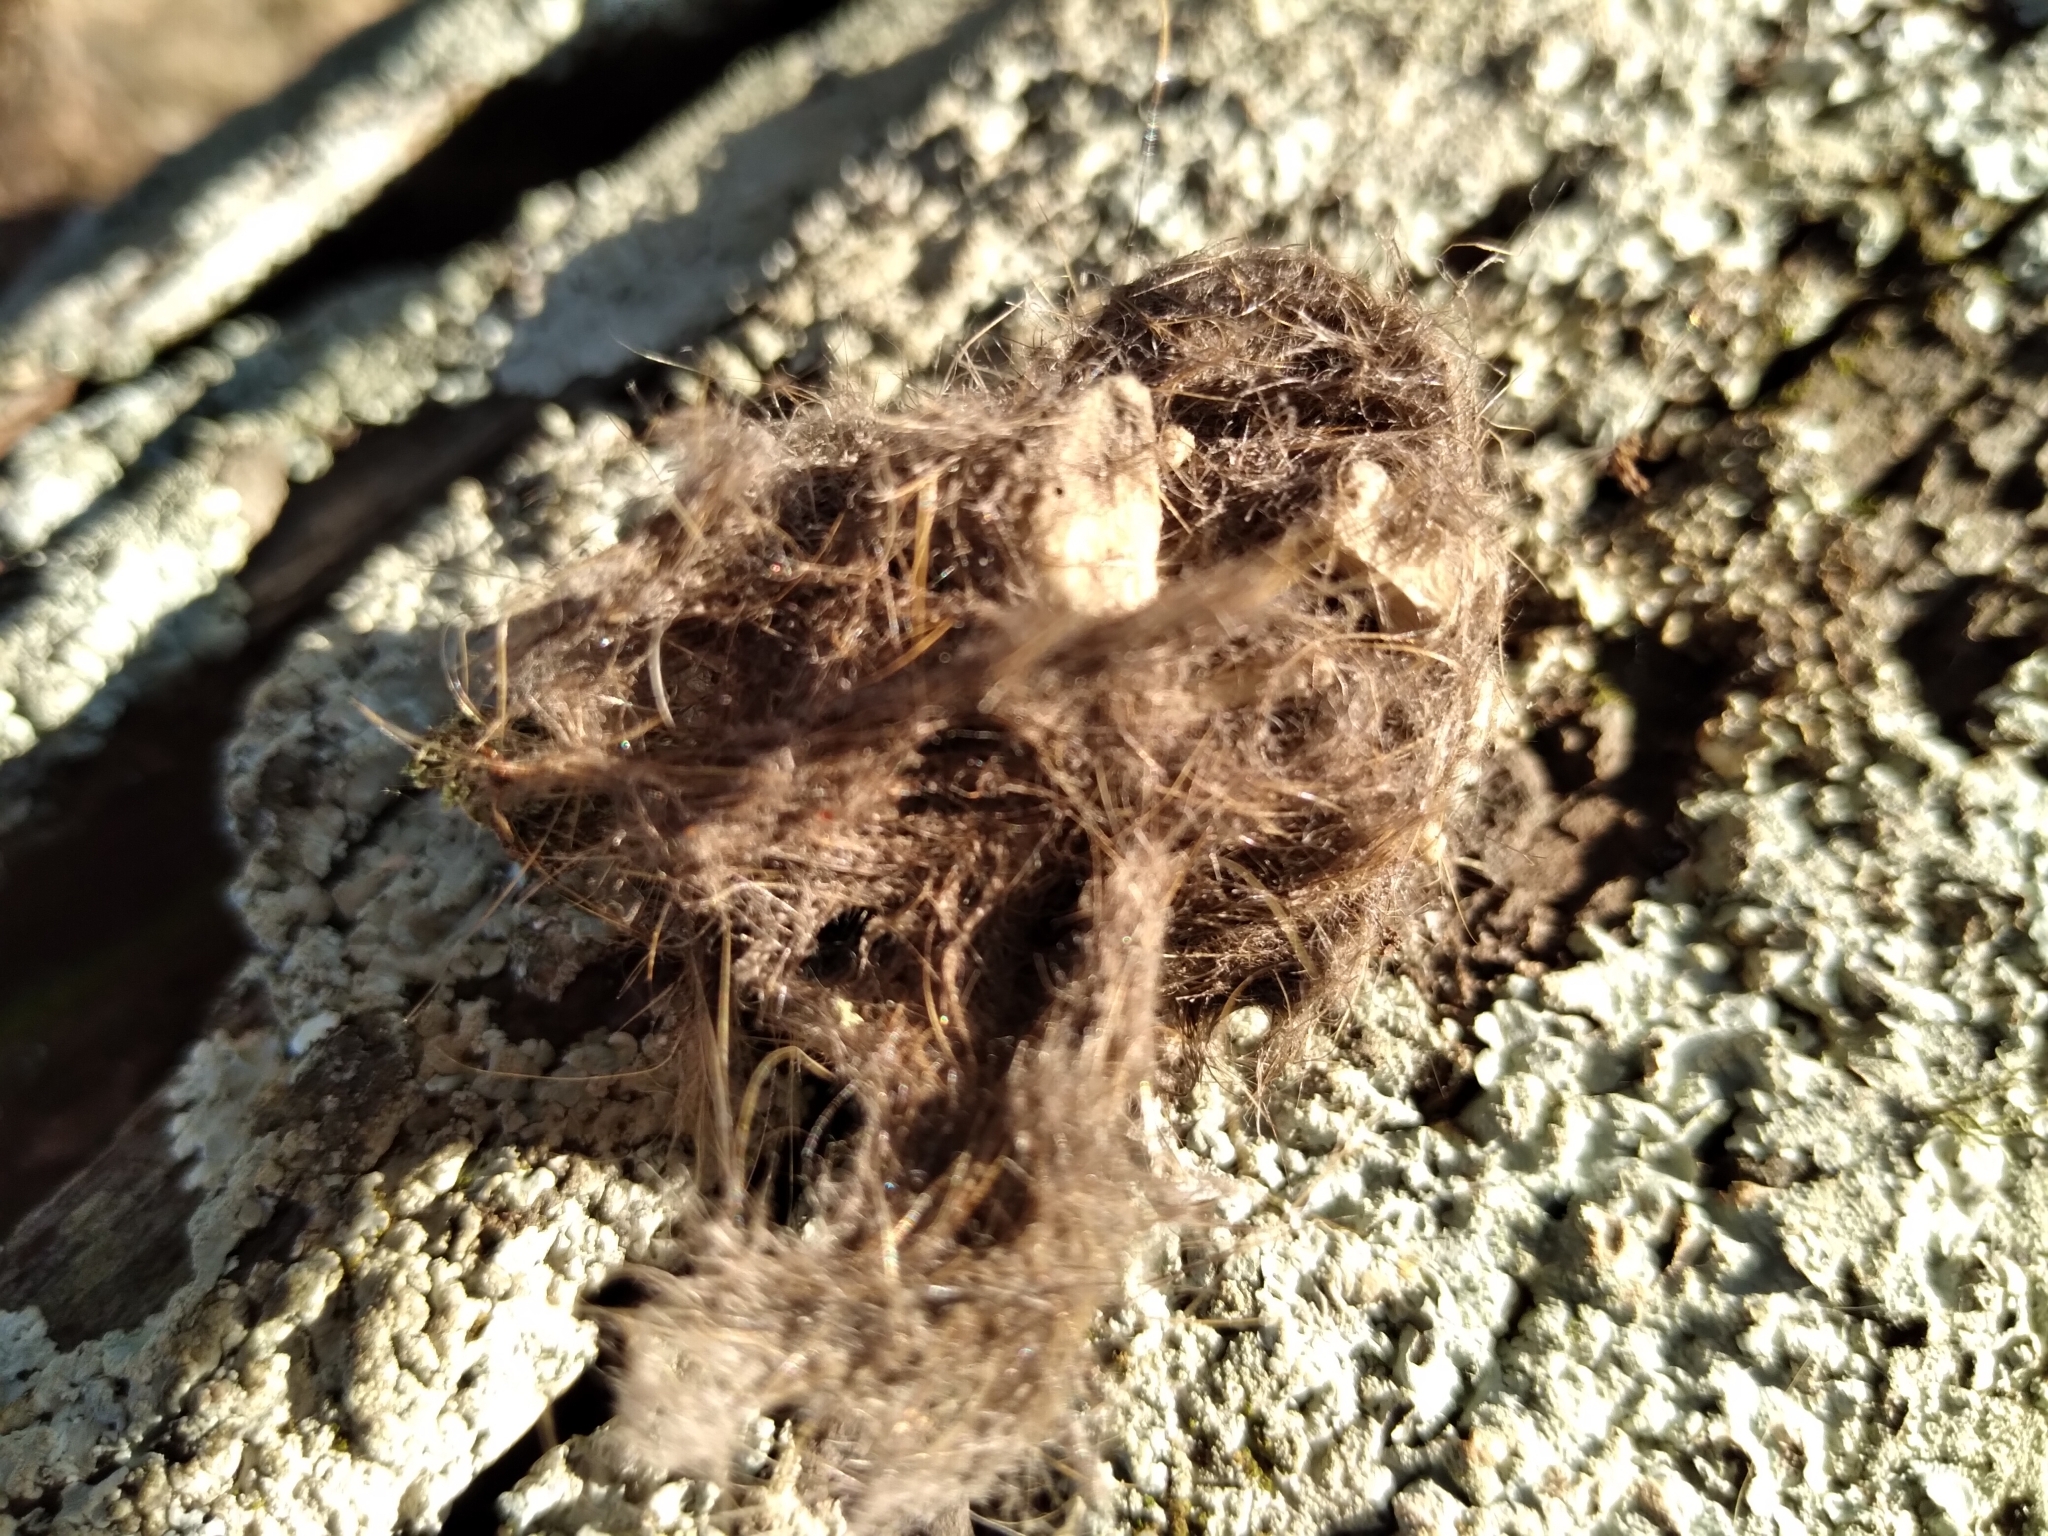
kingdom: Animalia
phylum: Chordata
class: Aves
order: Strigiformes
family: Strigidae
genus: Bubo
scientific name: Bubo virginianus
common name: Great horned owl
